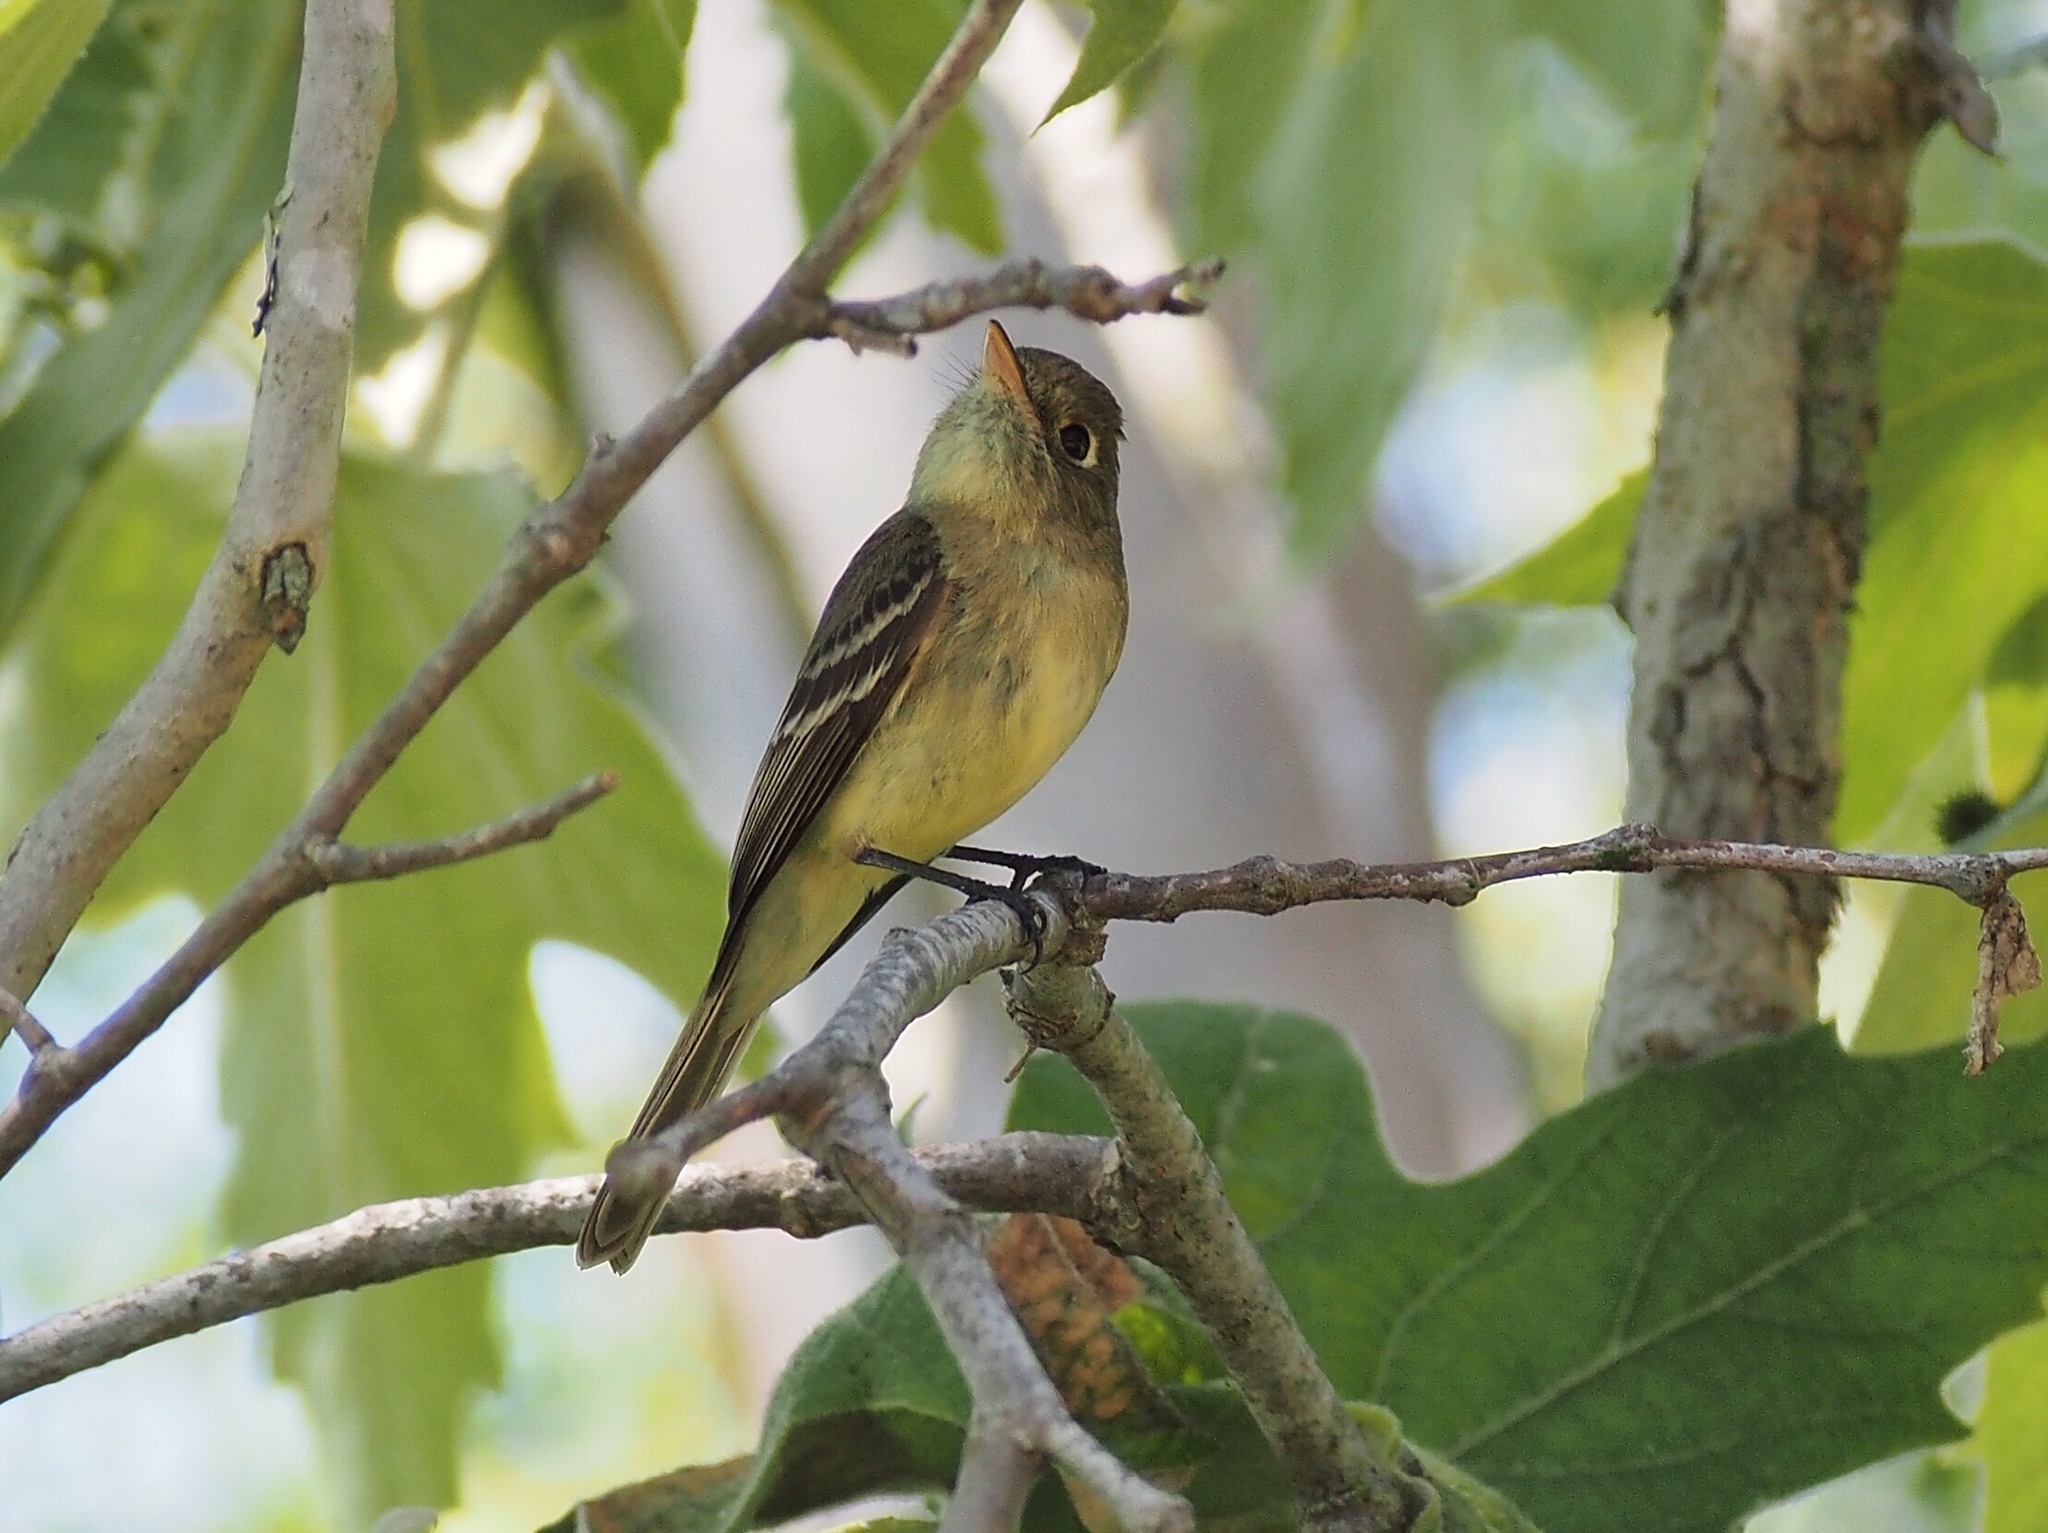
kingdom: Animalia
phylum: Chordata
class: Aves
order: Passeriformes
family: Tyrannidae
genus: Empidonax
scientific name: Empidonax difficilis
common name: Pacific-slope flycatcher
